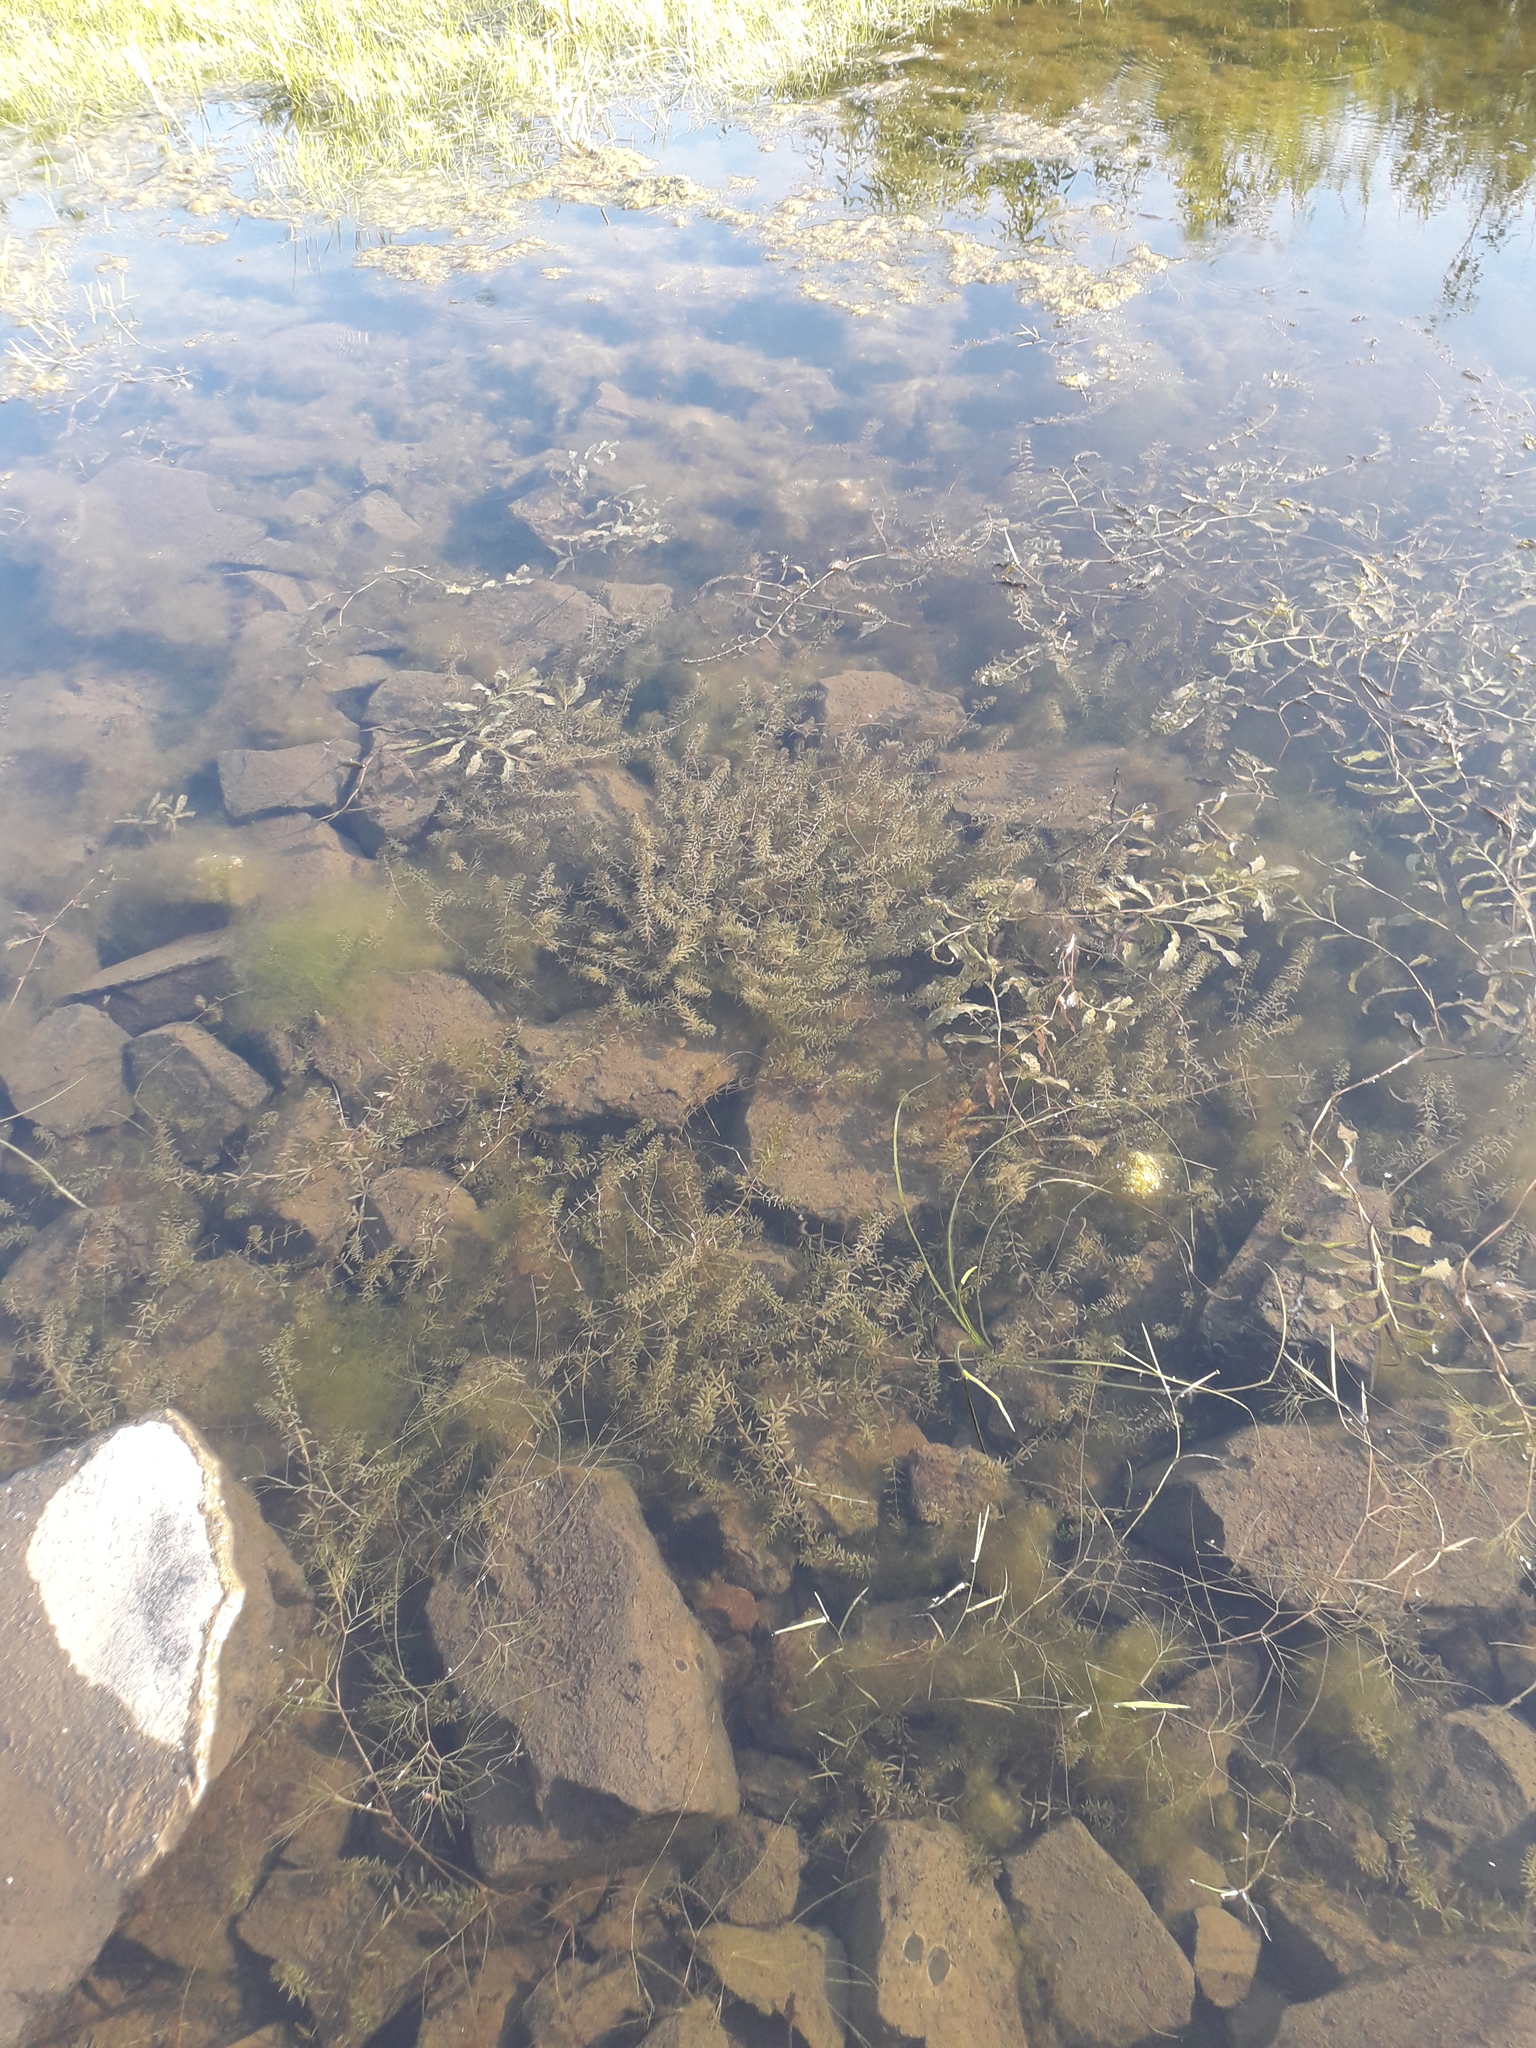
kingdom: Plantae
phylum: Tracheophyta
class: Liliopsida
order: Alismatales
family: Hydrocharitaceae
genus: Hydrilla
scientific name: Hydrilla verticillata
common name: Florida-elodea
